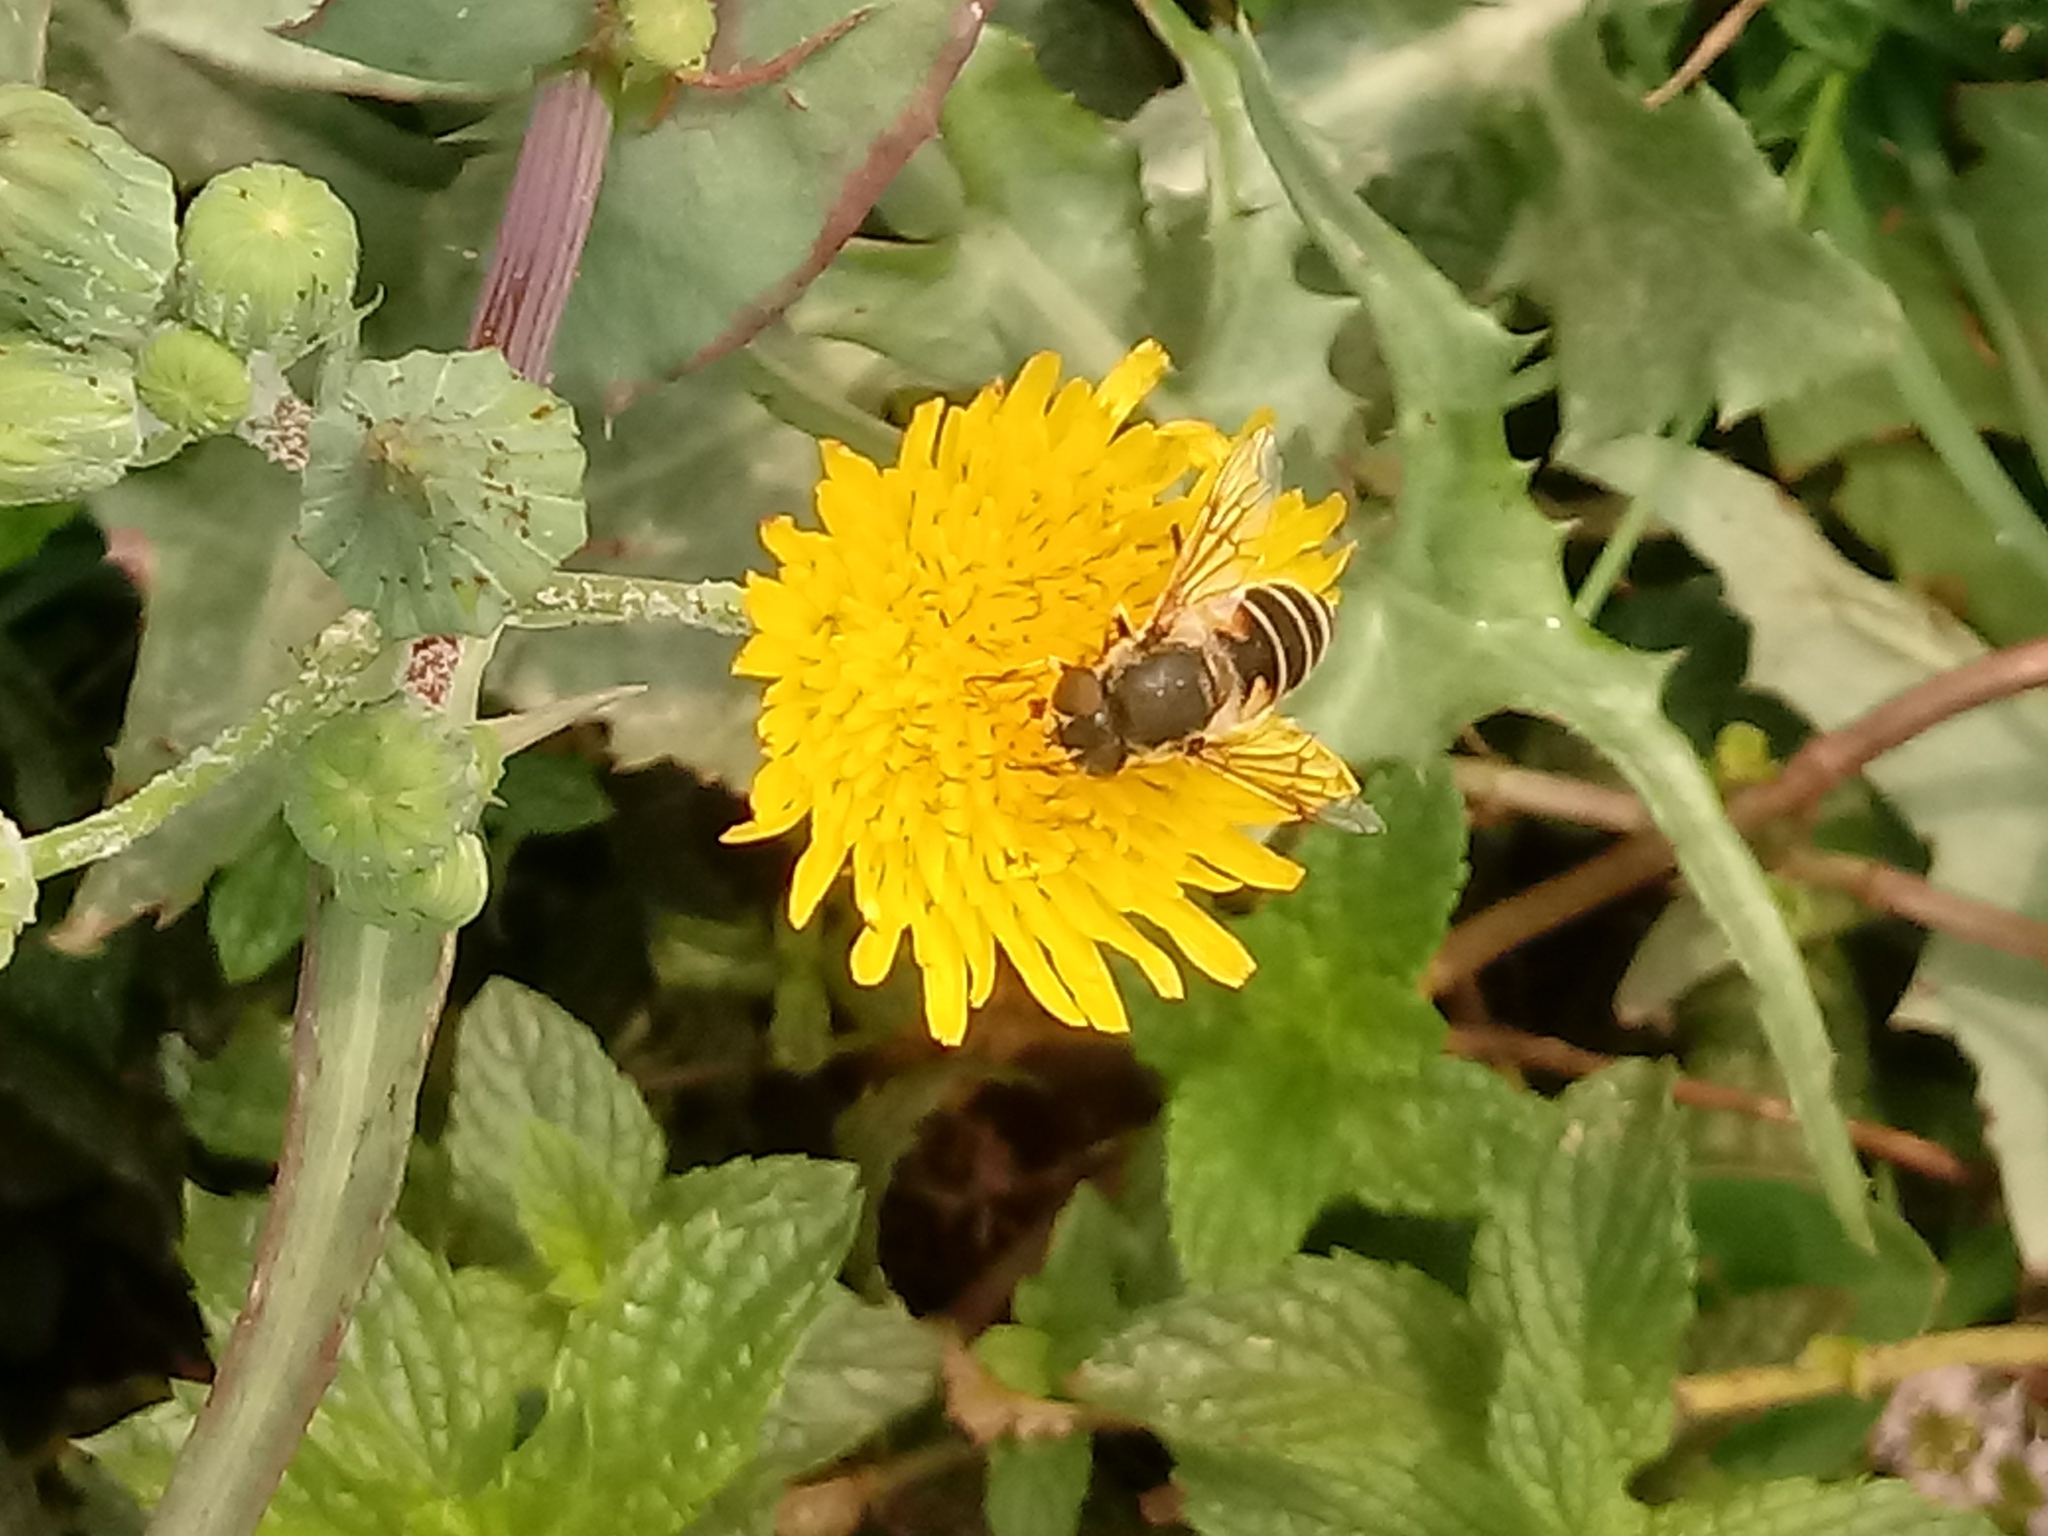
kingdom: Animalia
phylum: Arthropoda
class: Insecta
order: Diptera
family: Syrphidae
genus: Eristalis
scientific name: Eristalis arbustorum
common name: Hover fly
